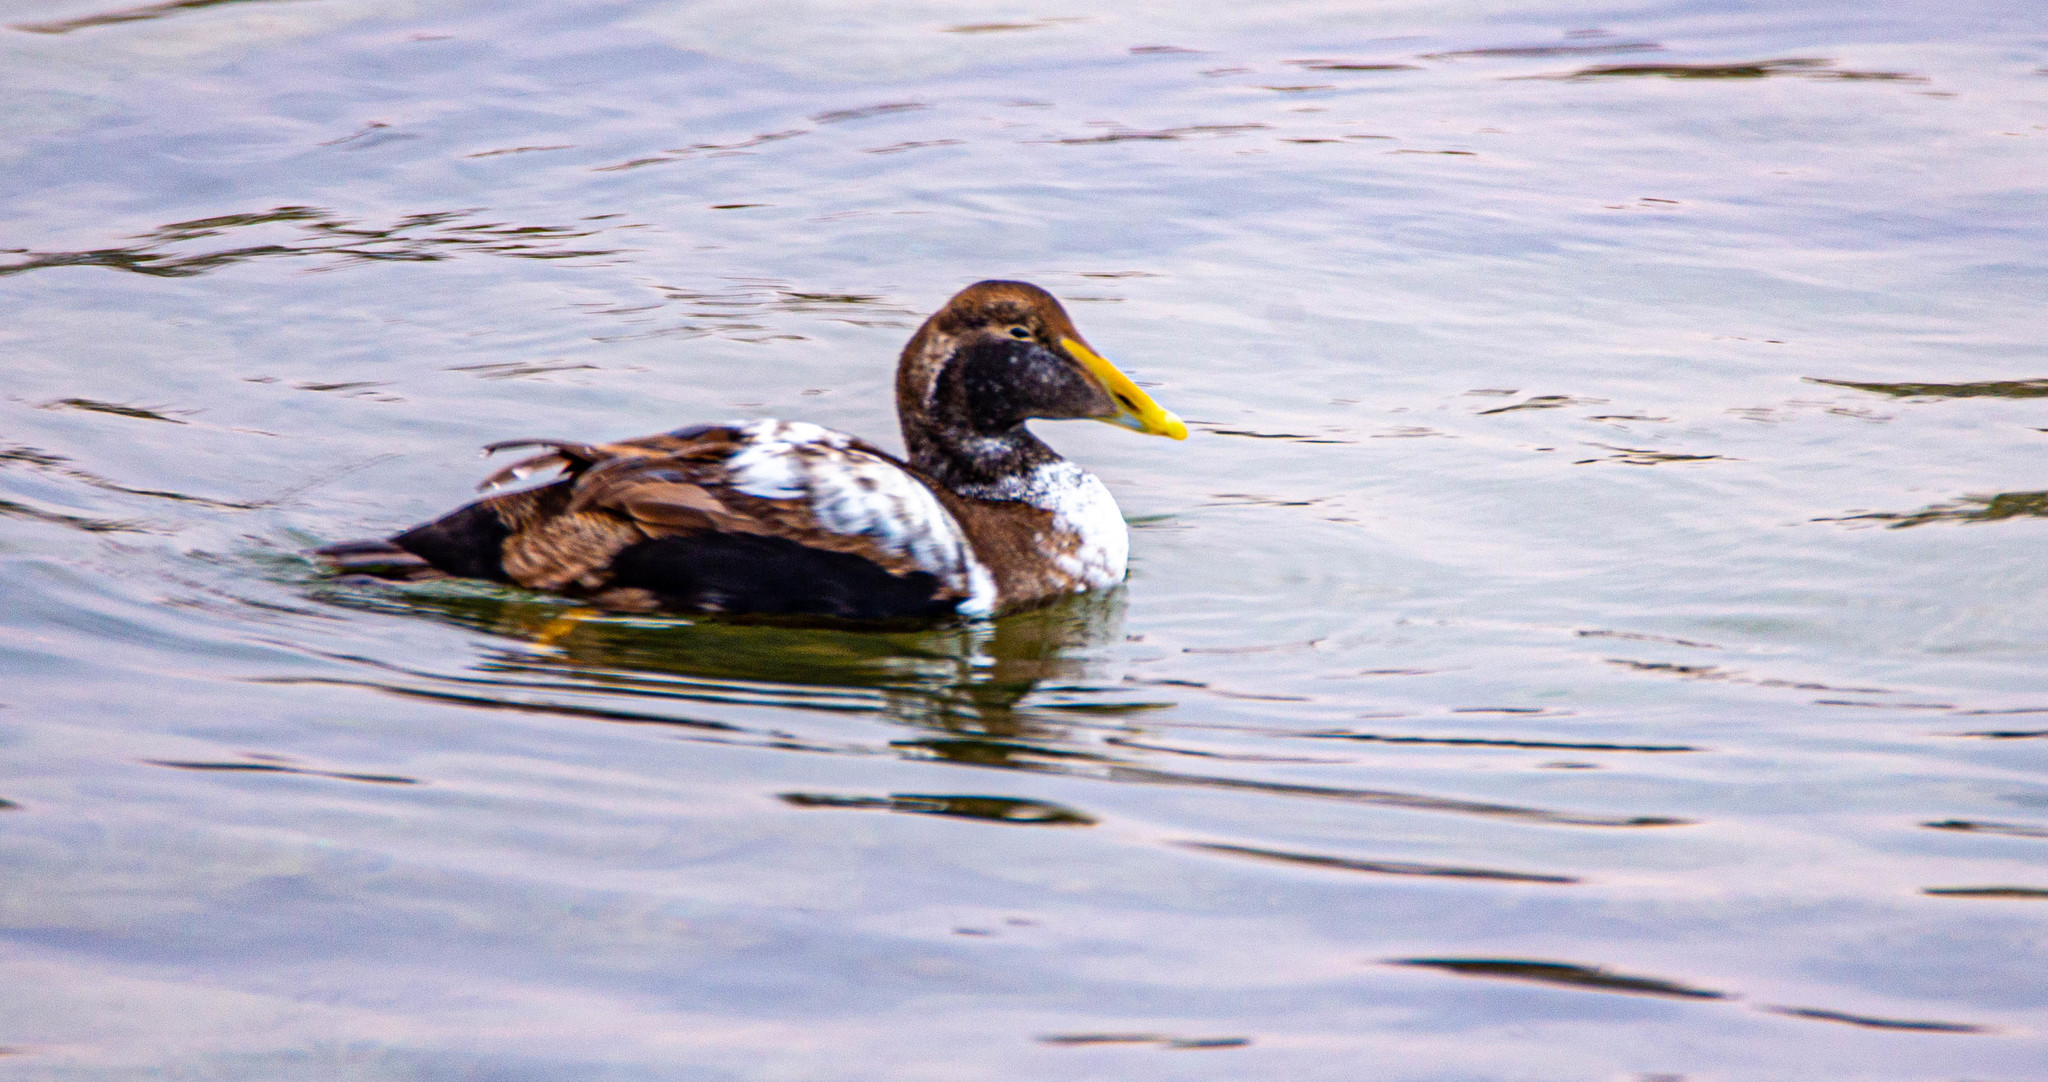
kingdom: Animalia
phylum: Chordata
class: Aves
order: Anseriformes
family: Anatidae
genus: Somateria
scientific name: Somateria mollissima
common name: Common eider
